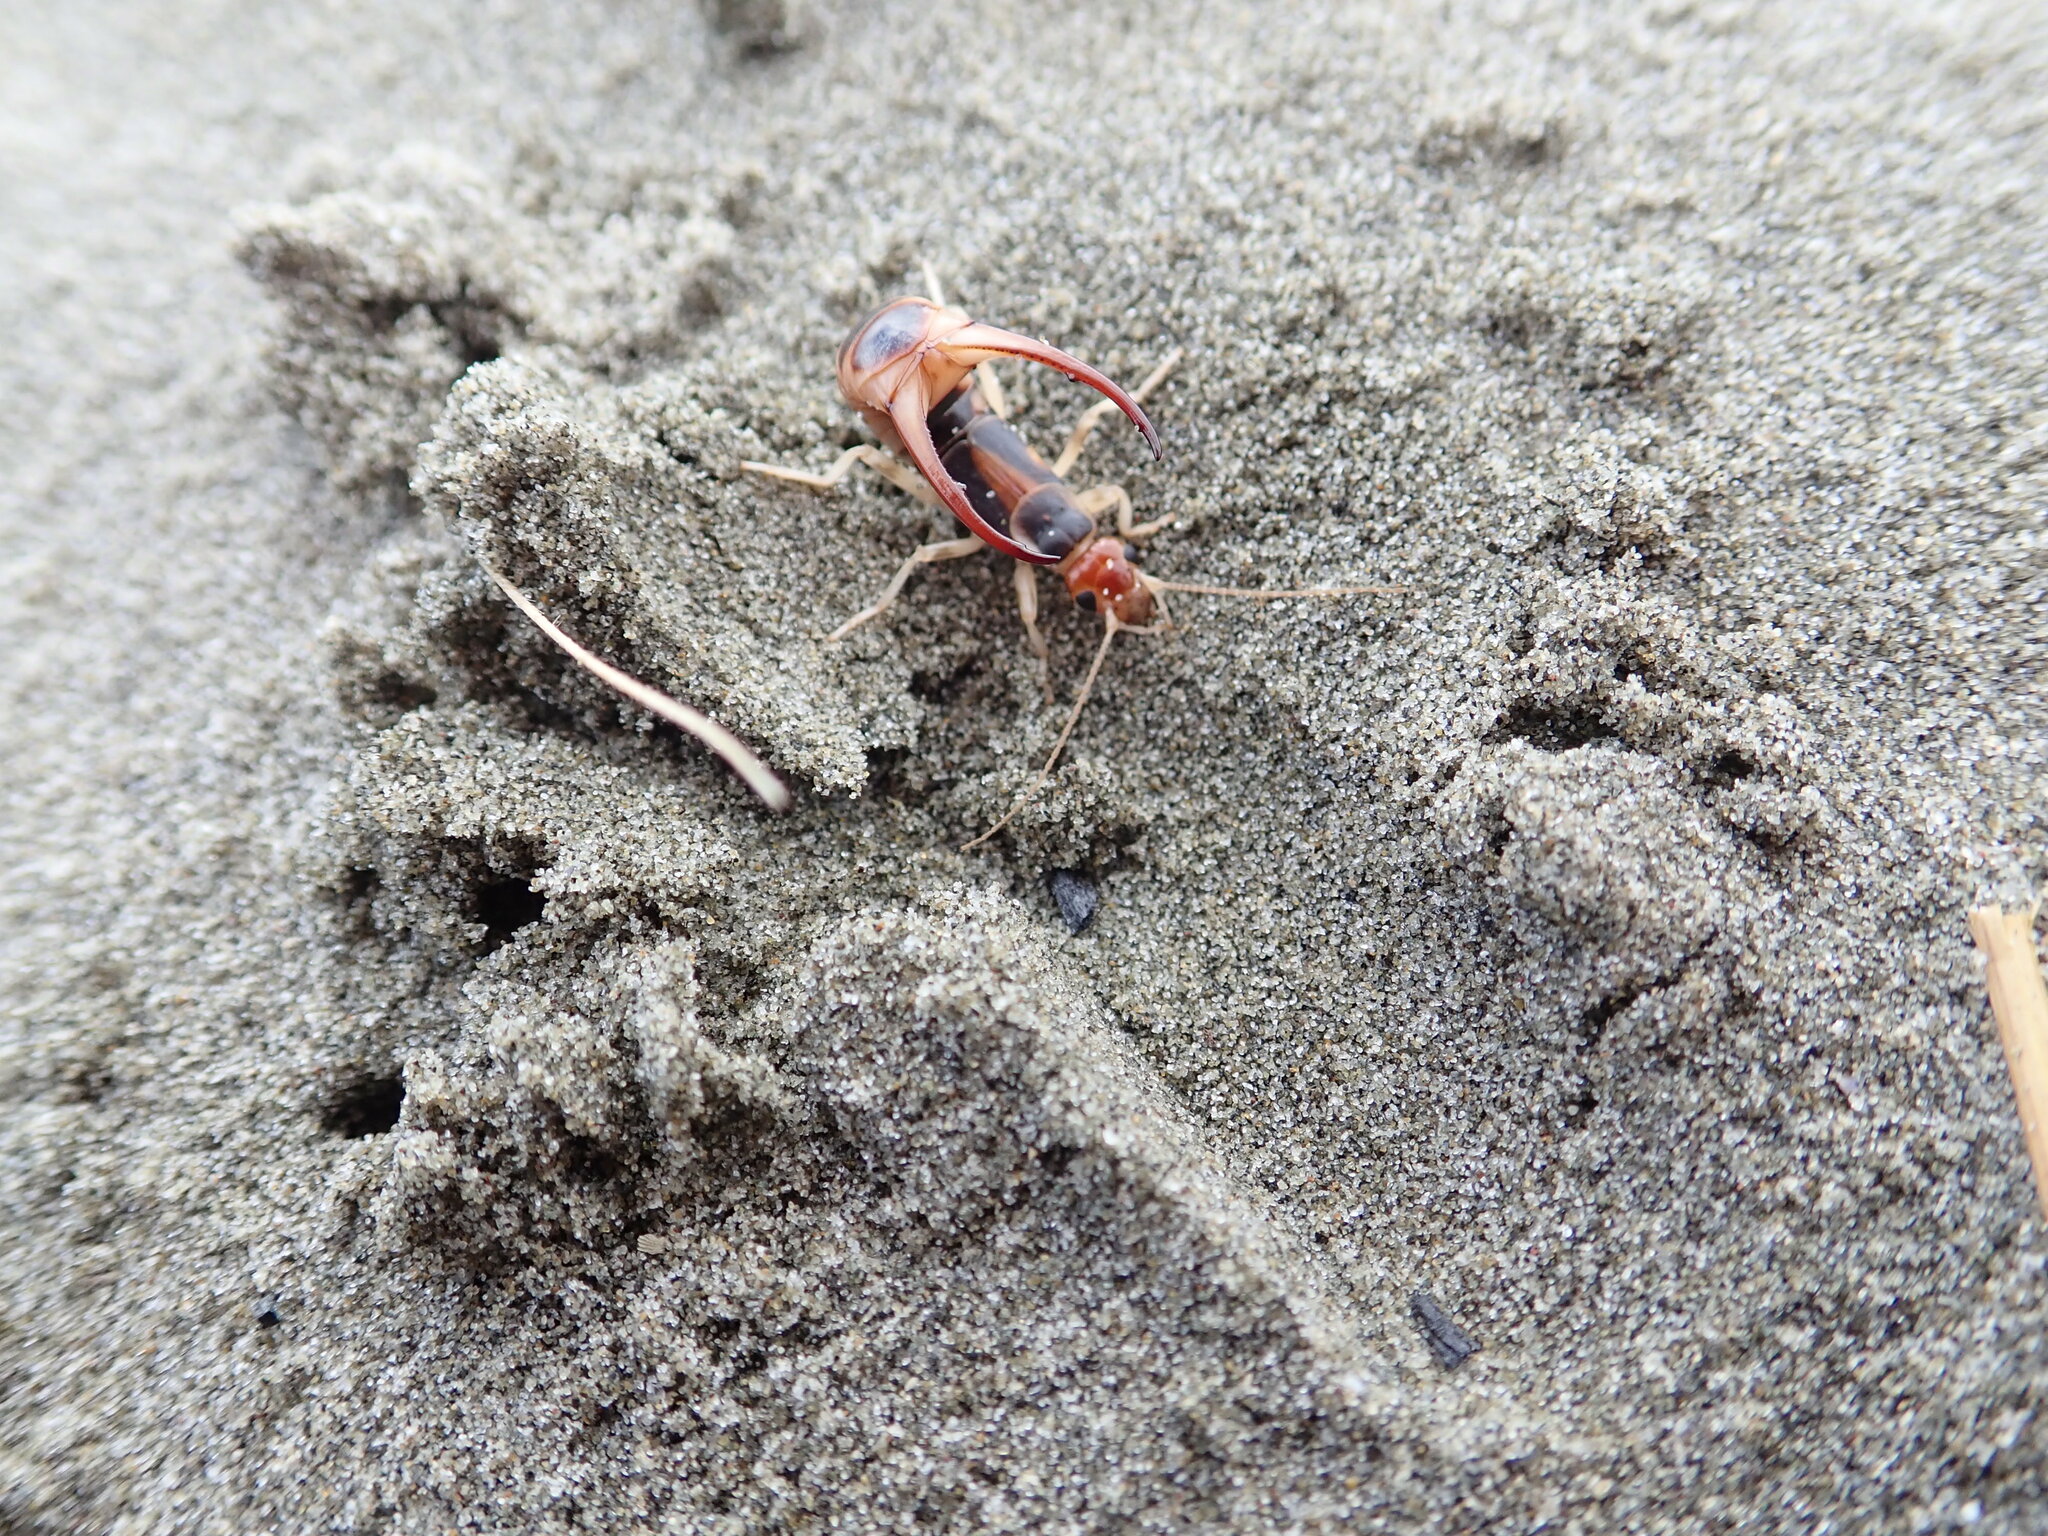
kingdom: Animalia
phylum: Arthropoda
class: Insecta
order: Dermaptera
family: Labiduridae
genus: Labidura
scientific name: Labidura riparia
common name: Striped earwig
